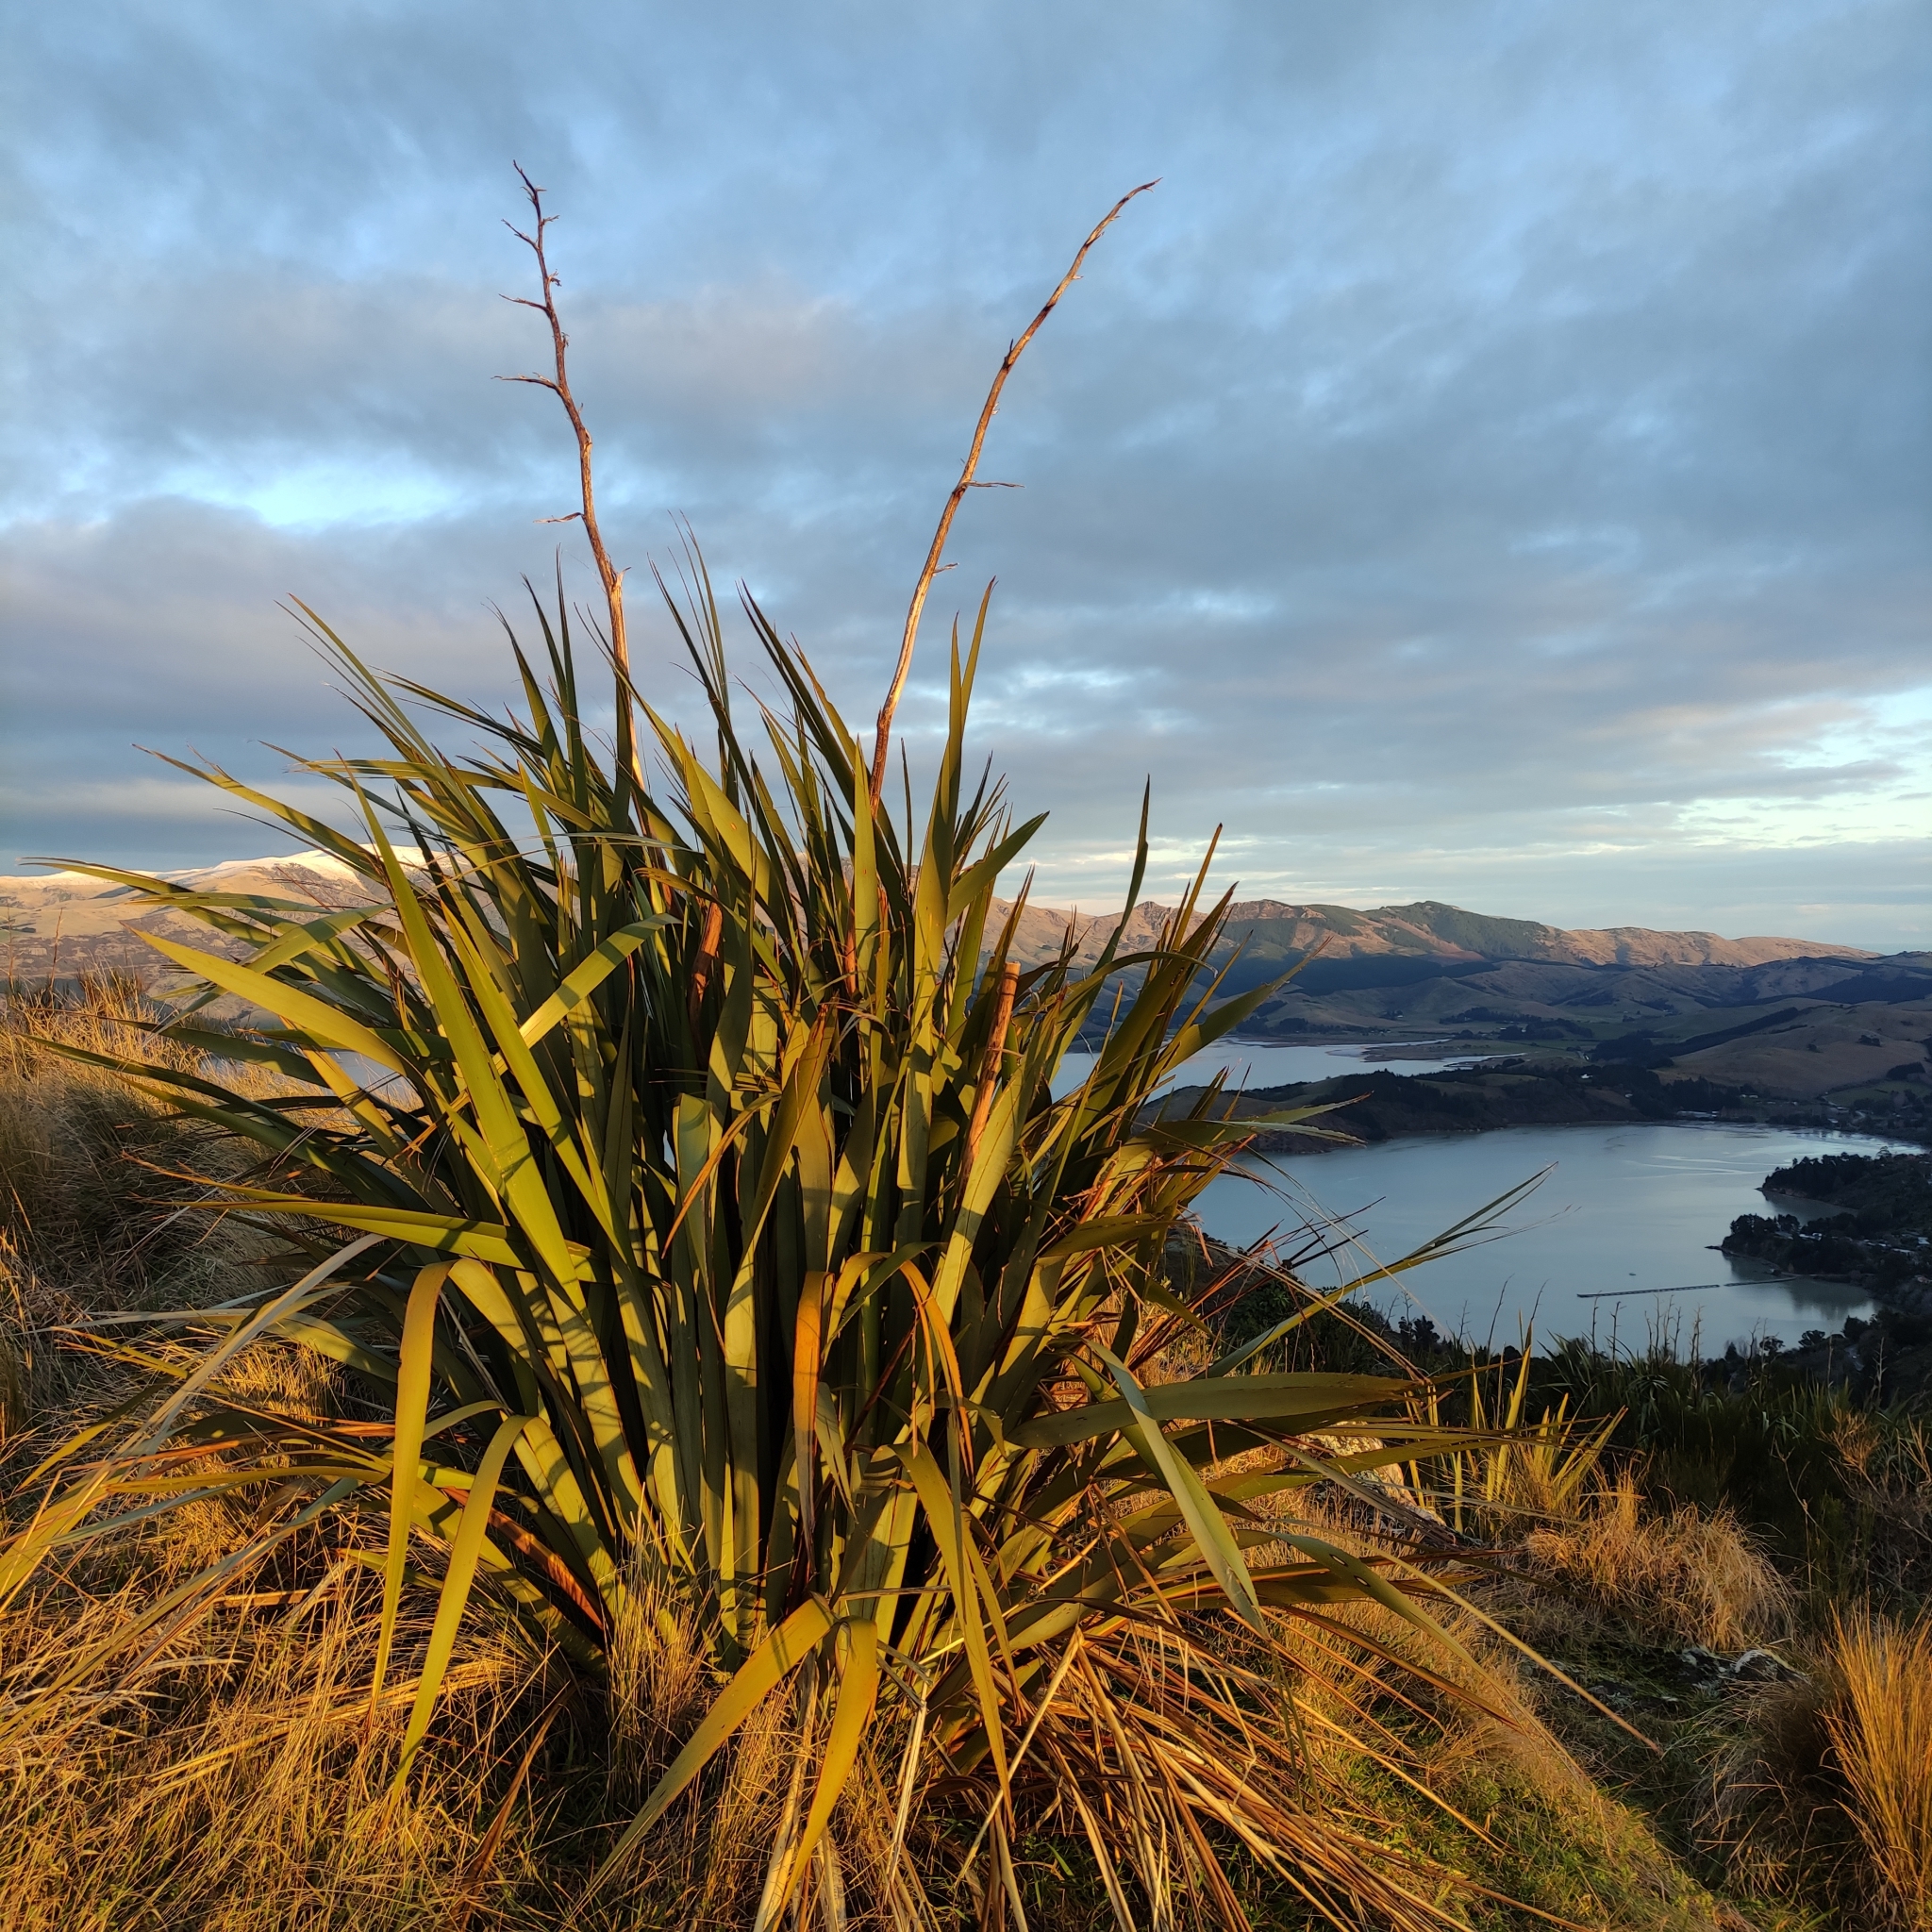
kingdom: Plantae
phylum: Tracheophyta
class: Liliopsida
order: Asparagales
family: Asphodelaceae
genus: Phormium
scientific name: Phormium tenax
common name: New zealand flax
